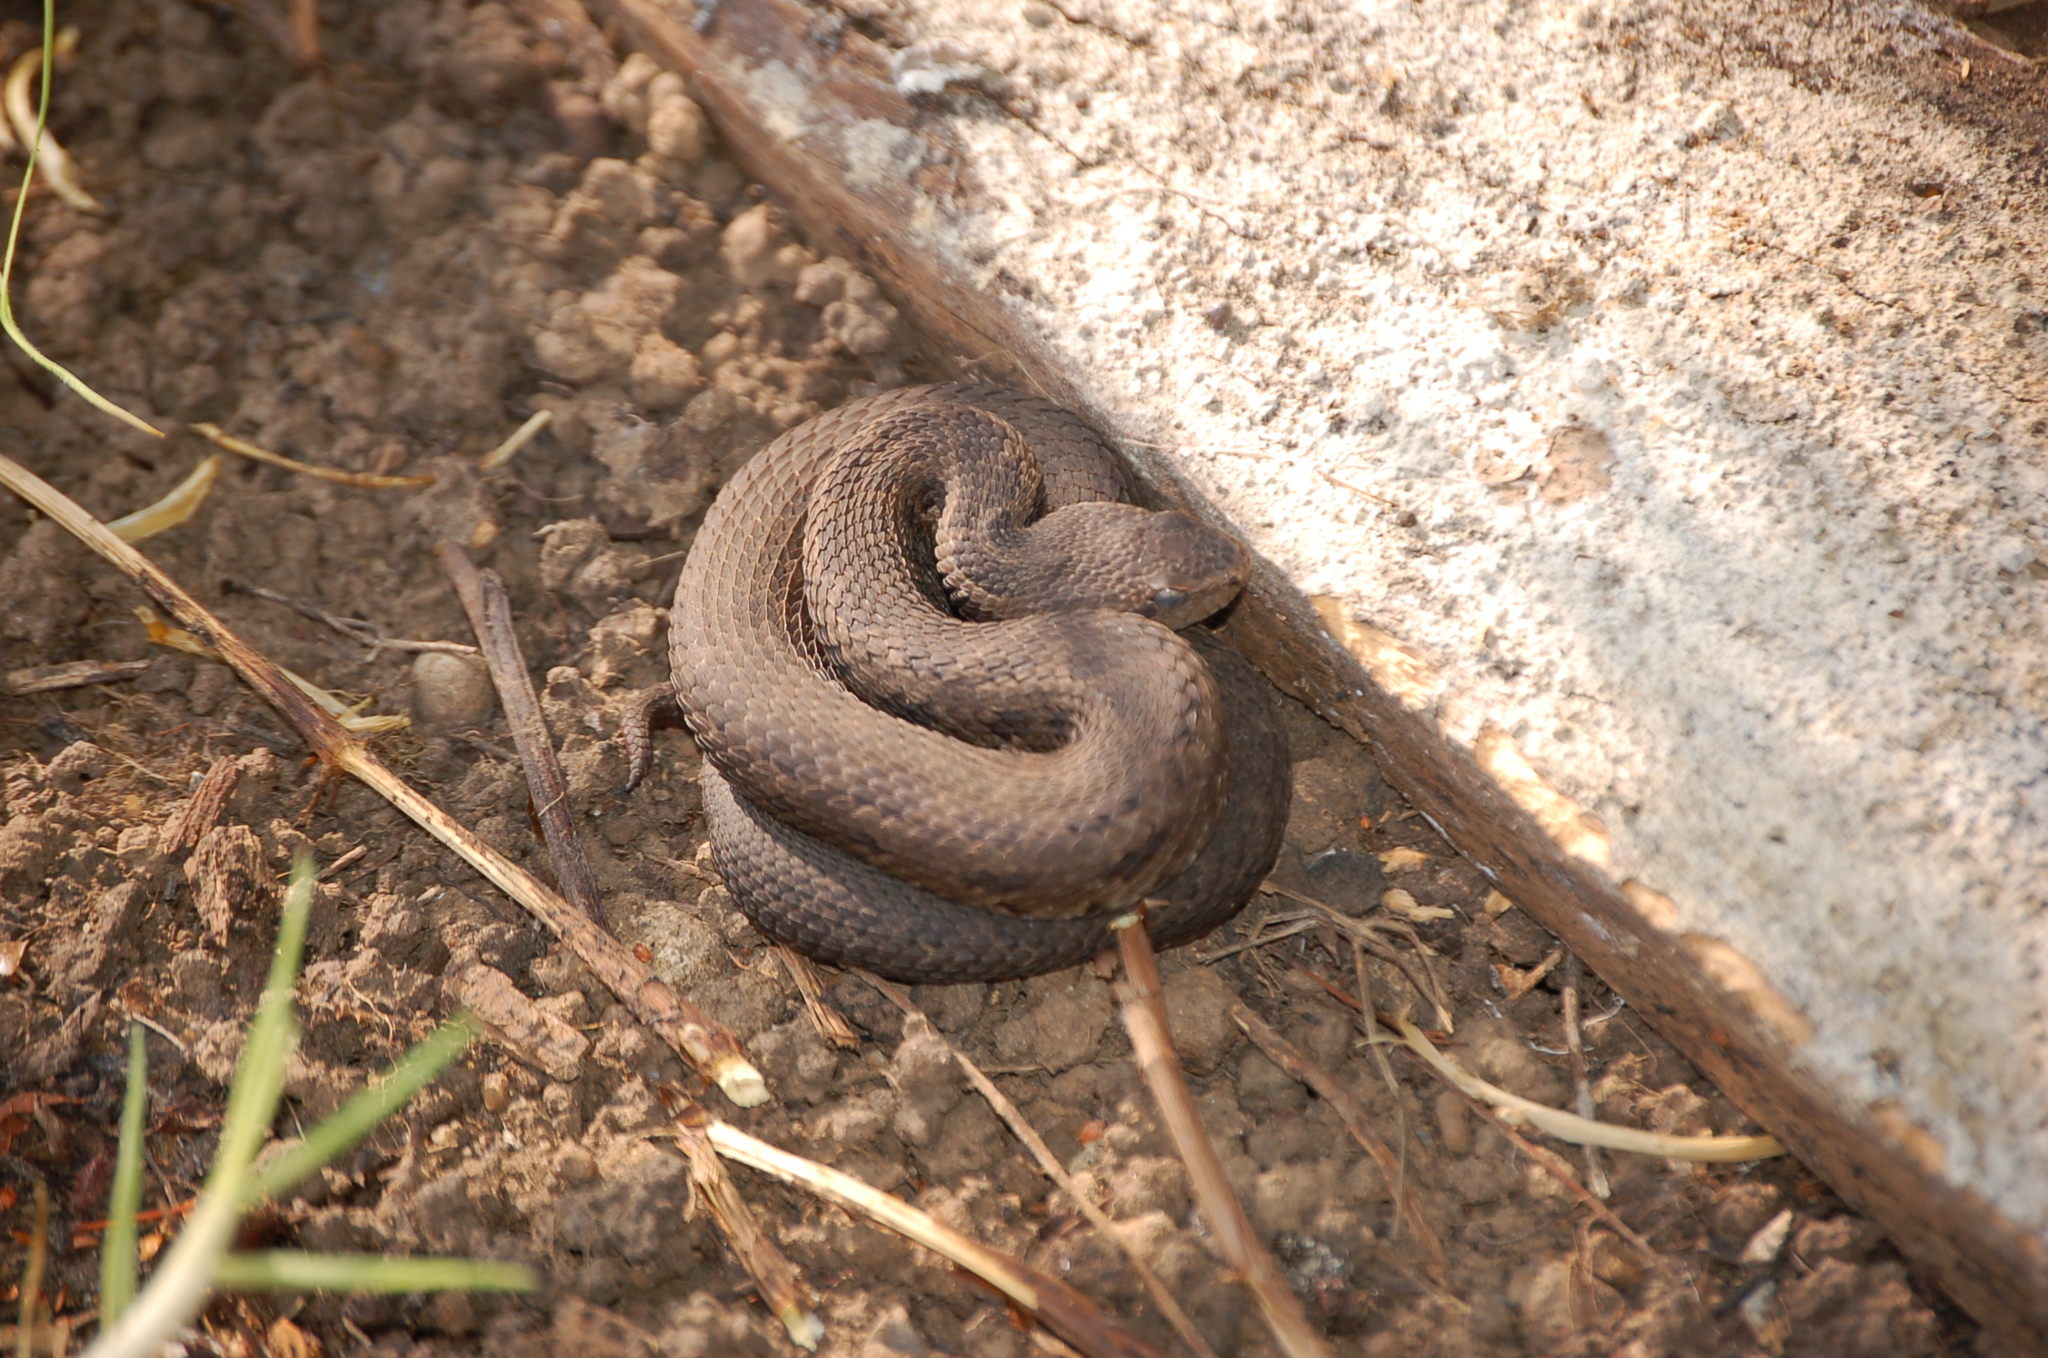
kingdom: Animalia
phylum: Chordata
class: Squamata
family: Viperidae
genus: Cerrophidion
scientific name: Cerrophidion tzotzilorum
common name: Tzotzil montane pit viper
